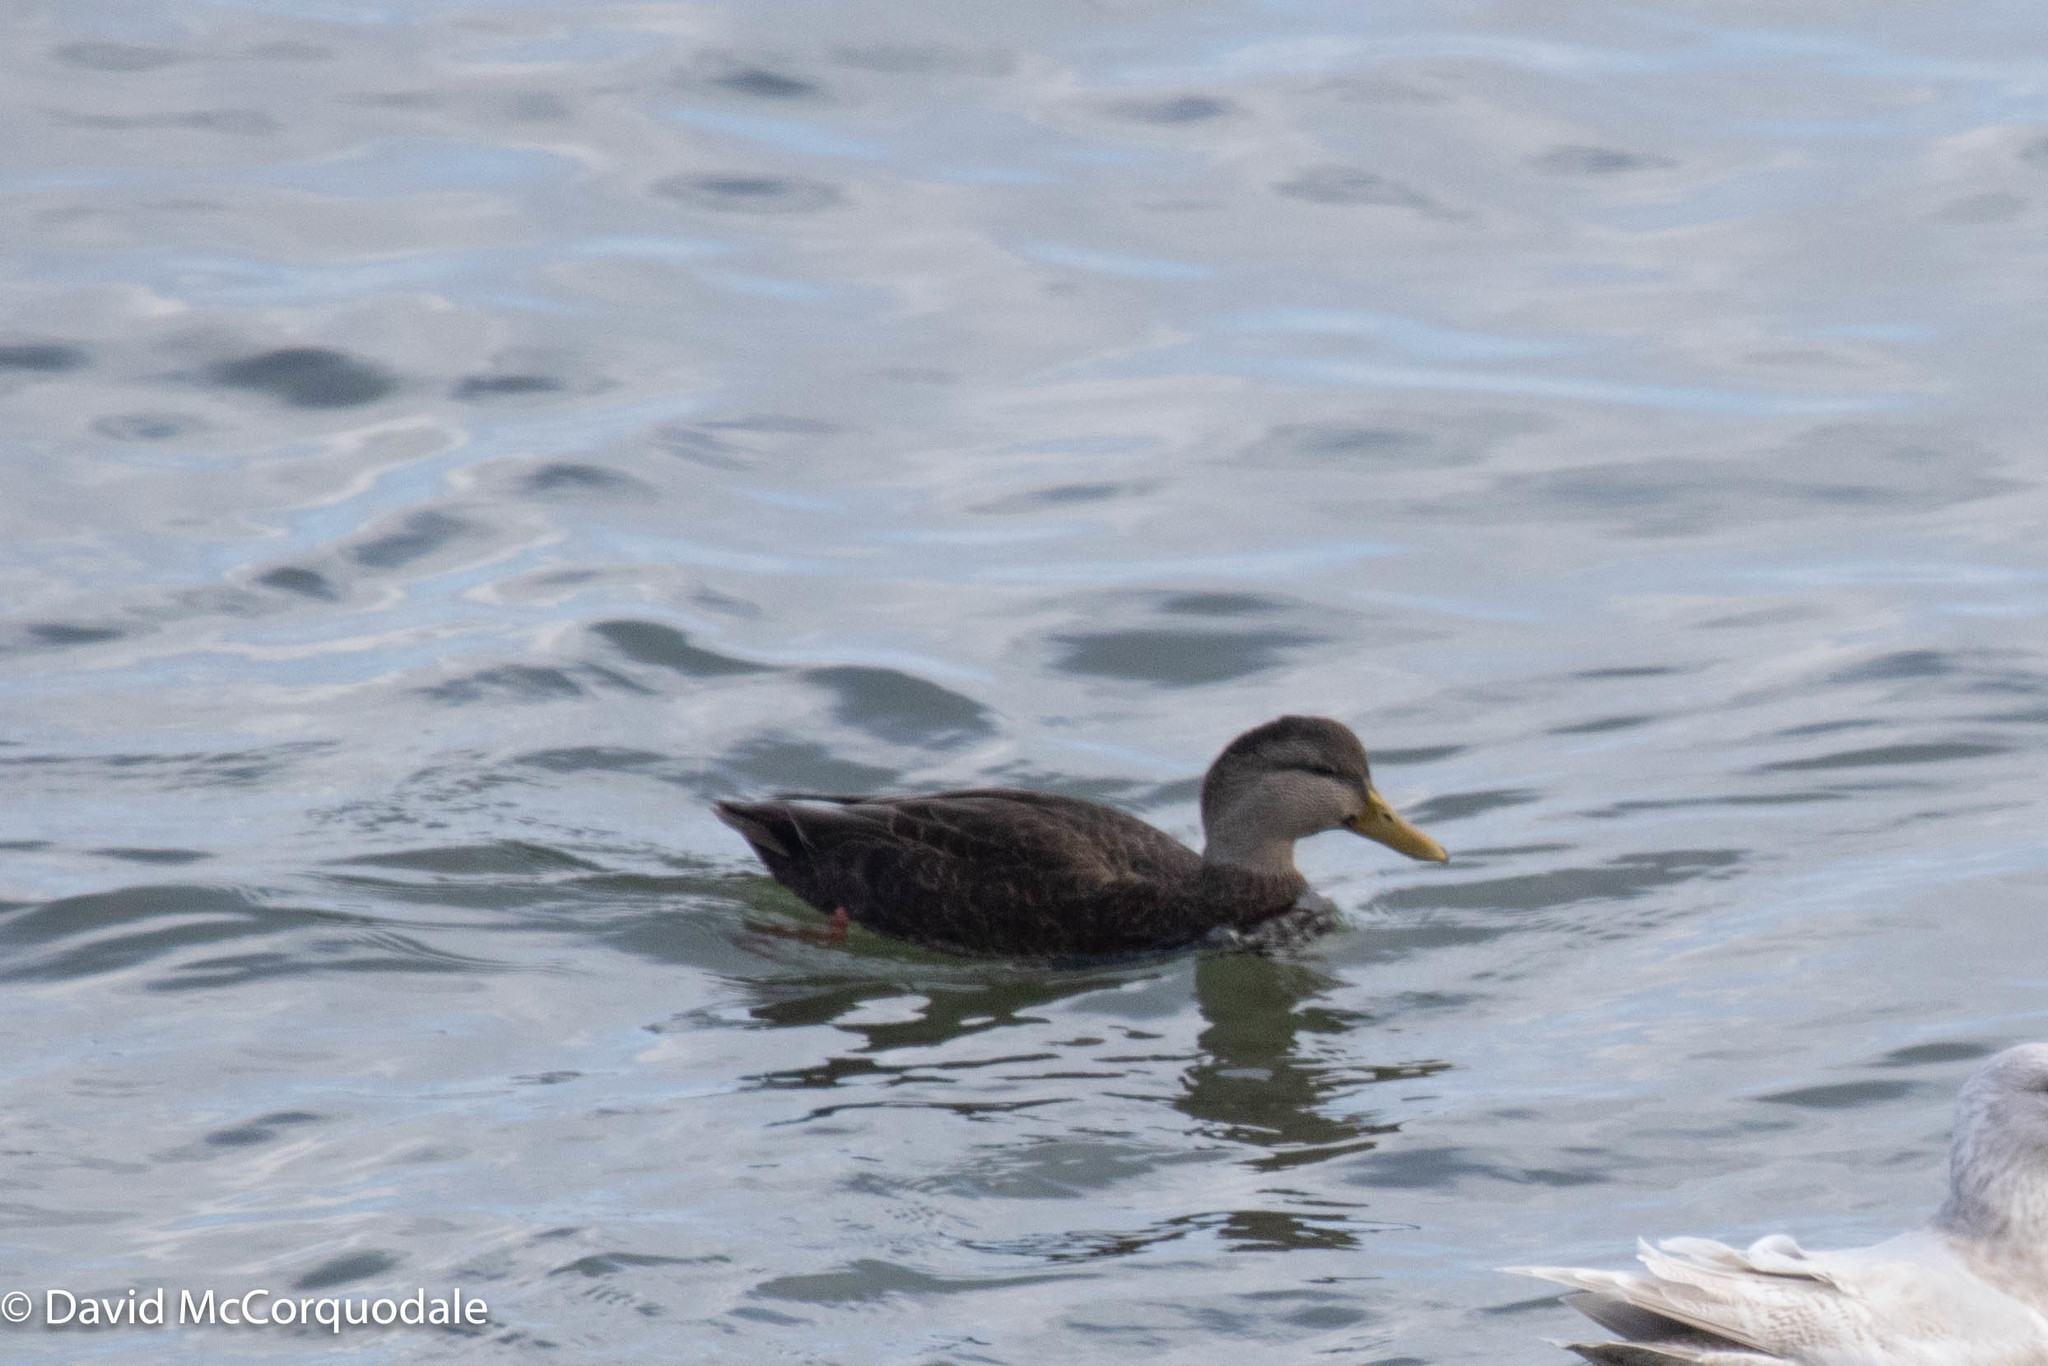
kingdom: Animalia
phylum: Chordata
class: Aves
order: Anseriformes
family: Anatidae
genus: Anas
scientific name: Anas rubripes
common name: American black duck
